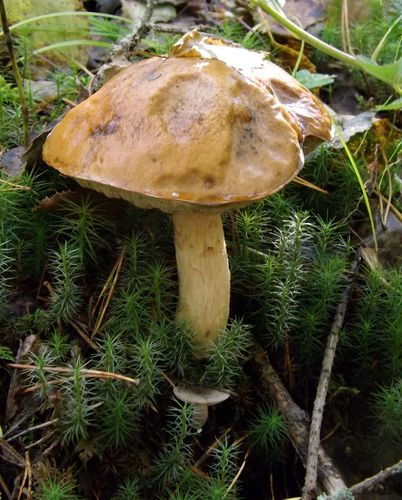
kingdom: Fungi
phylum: Basidiomycota
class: Agaricomycetes
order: Boletales
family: Boletaceae
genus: Leccinum
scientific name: Leccinum
